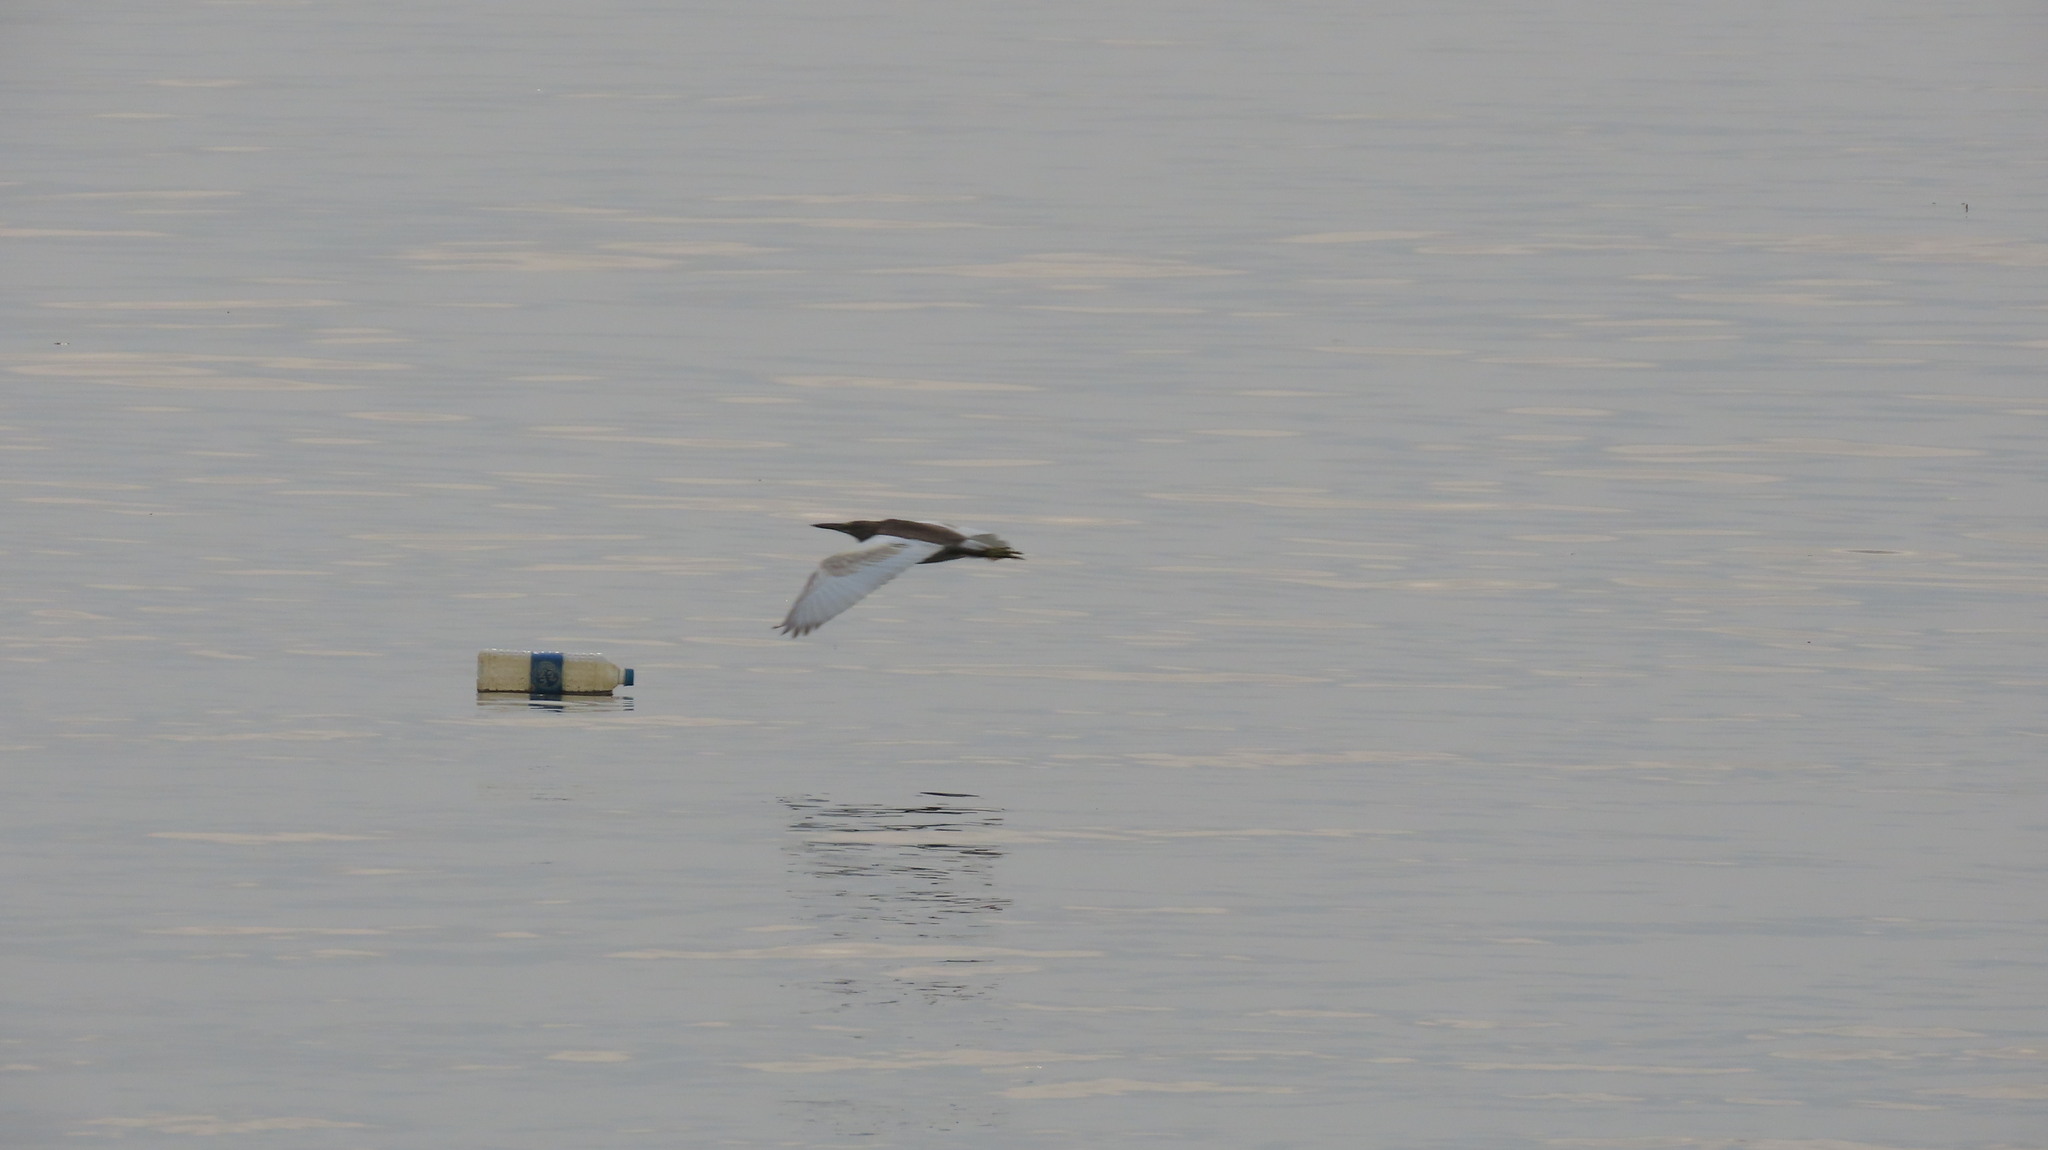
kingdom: Animalia
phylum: Chordata
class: Aves
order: Pelecaniformes
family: Ardeidae
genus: Ardeola
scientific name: Ardeola grayii
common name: Indian pond heron
